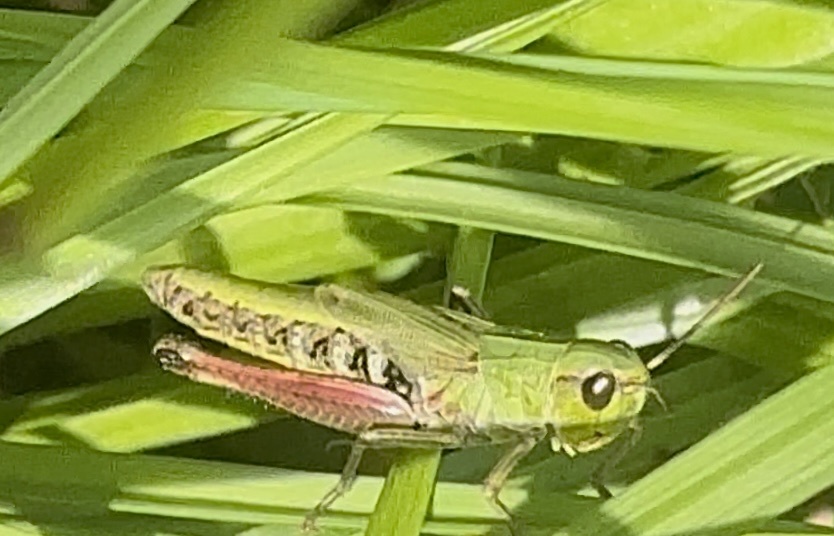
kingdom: Animalia
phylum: Arthropoda
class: Insecta
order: Orthoptera
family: Acrididae
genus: Pseudochorthippus
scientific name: Pseudochorthippus parallelus
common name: Meadow grasshopper
